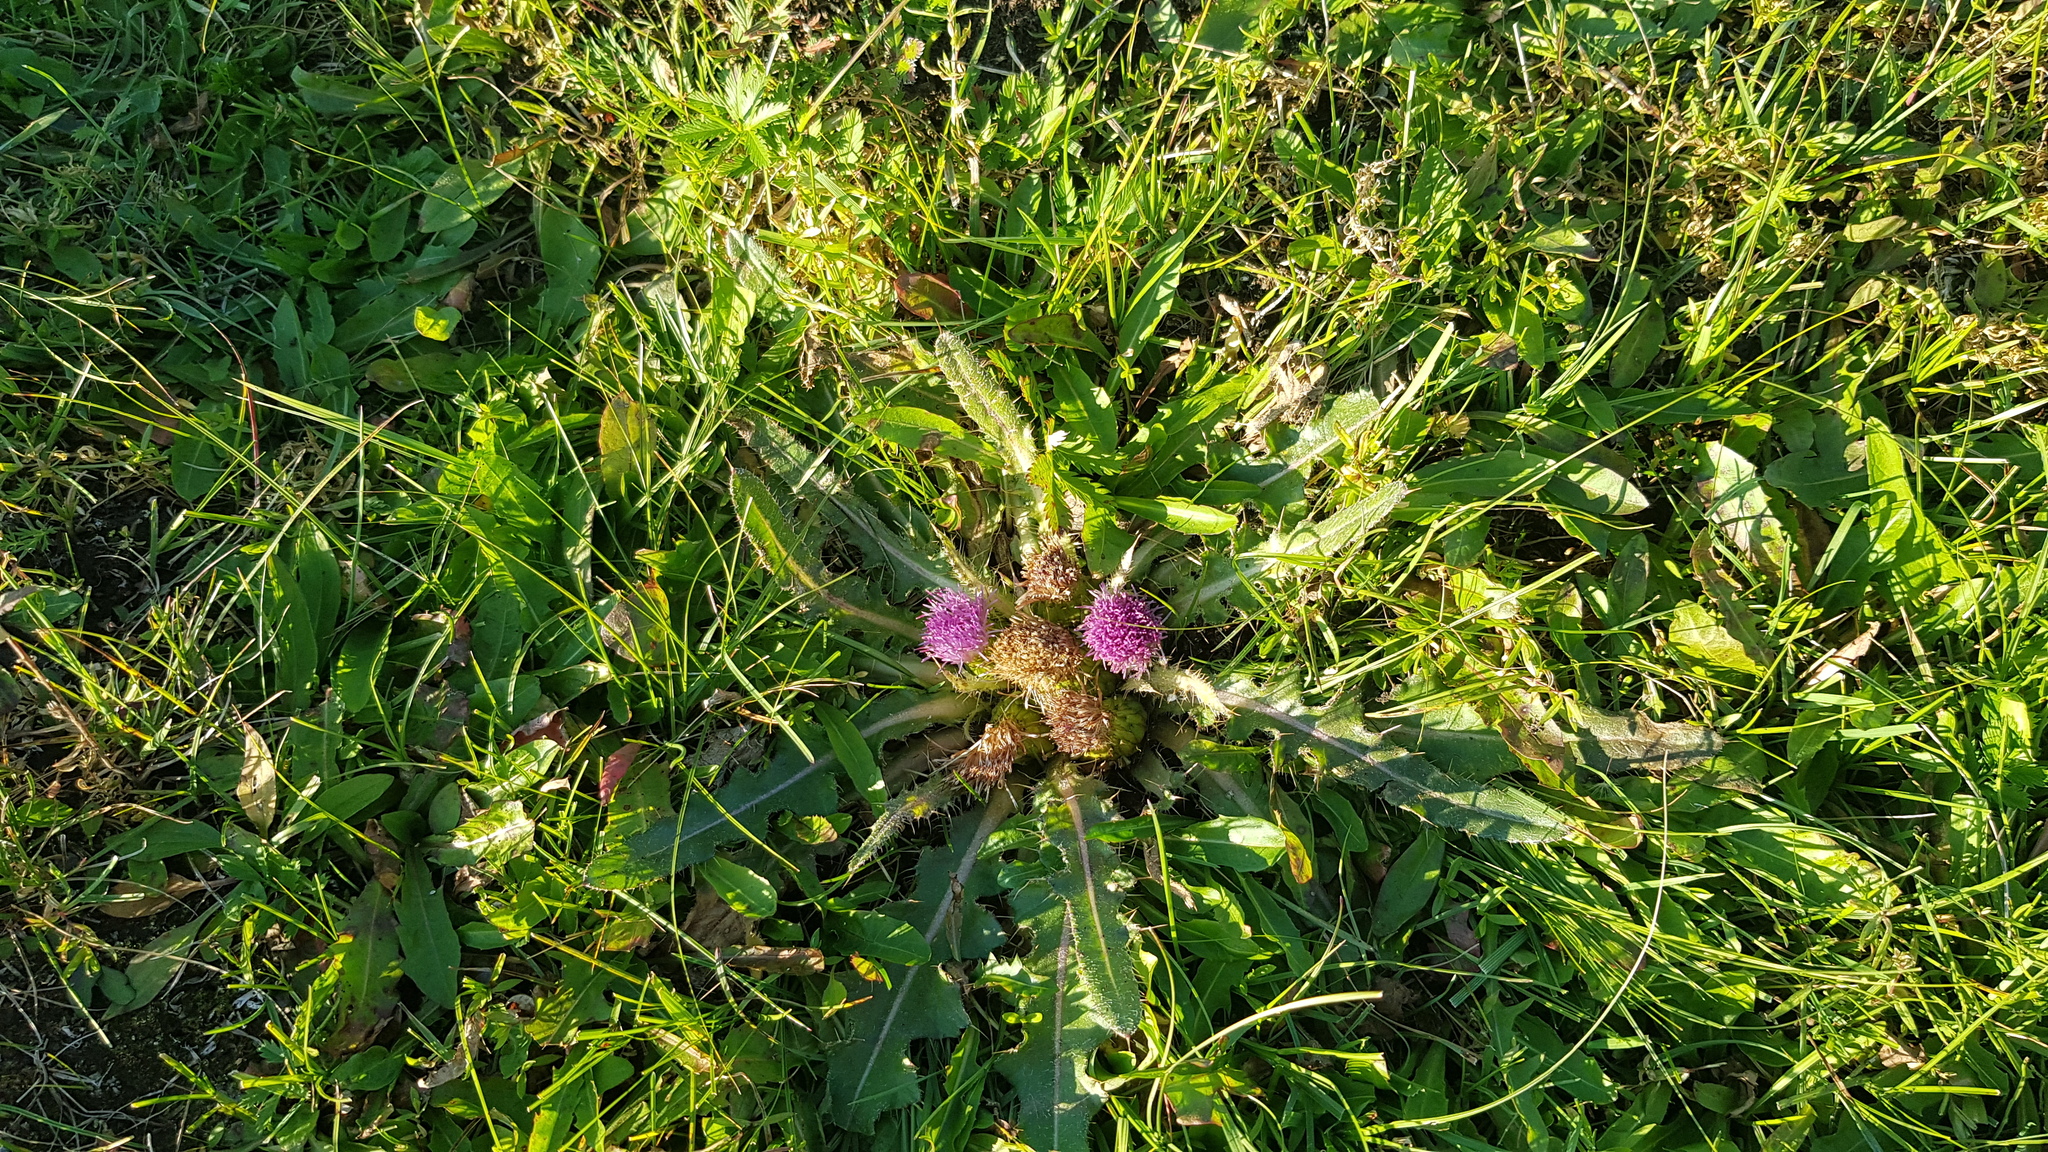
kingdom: Plantae
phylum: Tracheophyta
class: Magnoliopsida
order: Asterales
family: Asteraceae
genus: Cirsium
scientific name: Cirsium esculentum
